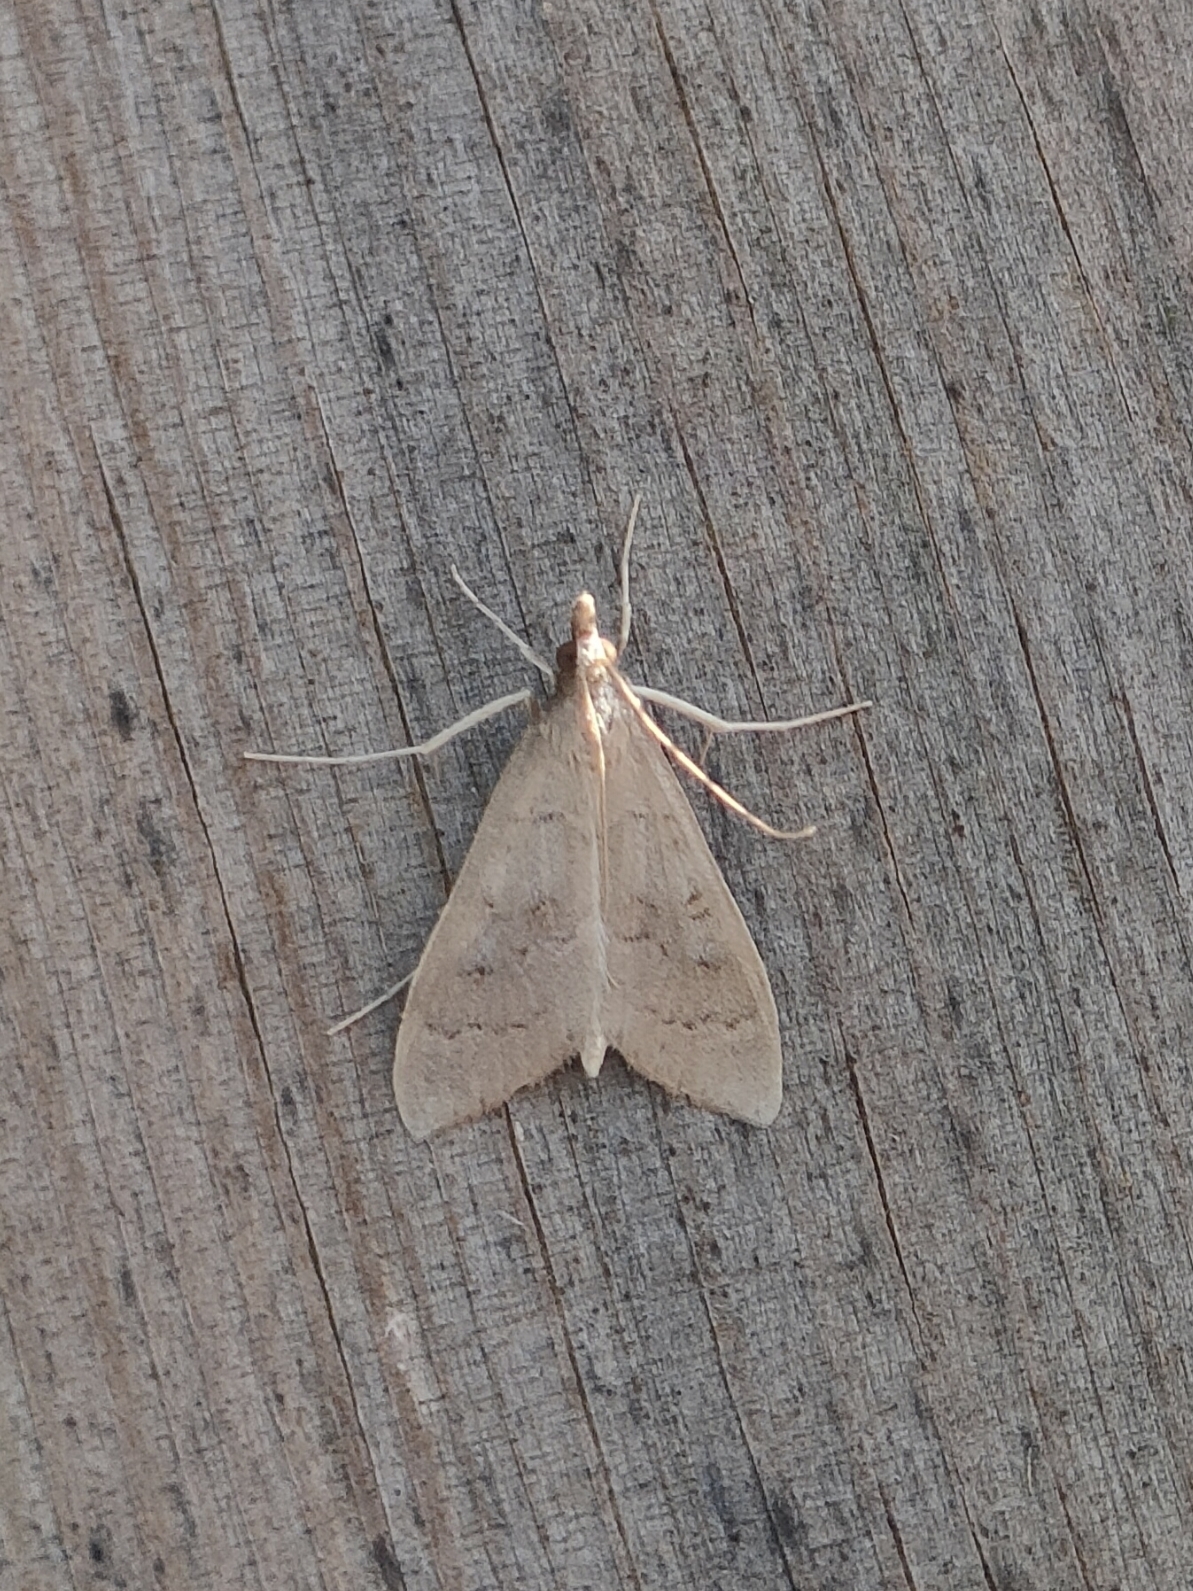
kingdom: Animalia
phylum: Arthropoda
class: Insecta
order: Lepidoptera
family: Crambidae
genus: Mecyna
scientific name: Mecyna asinalis
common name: Coastal pearl
